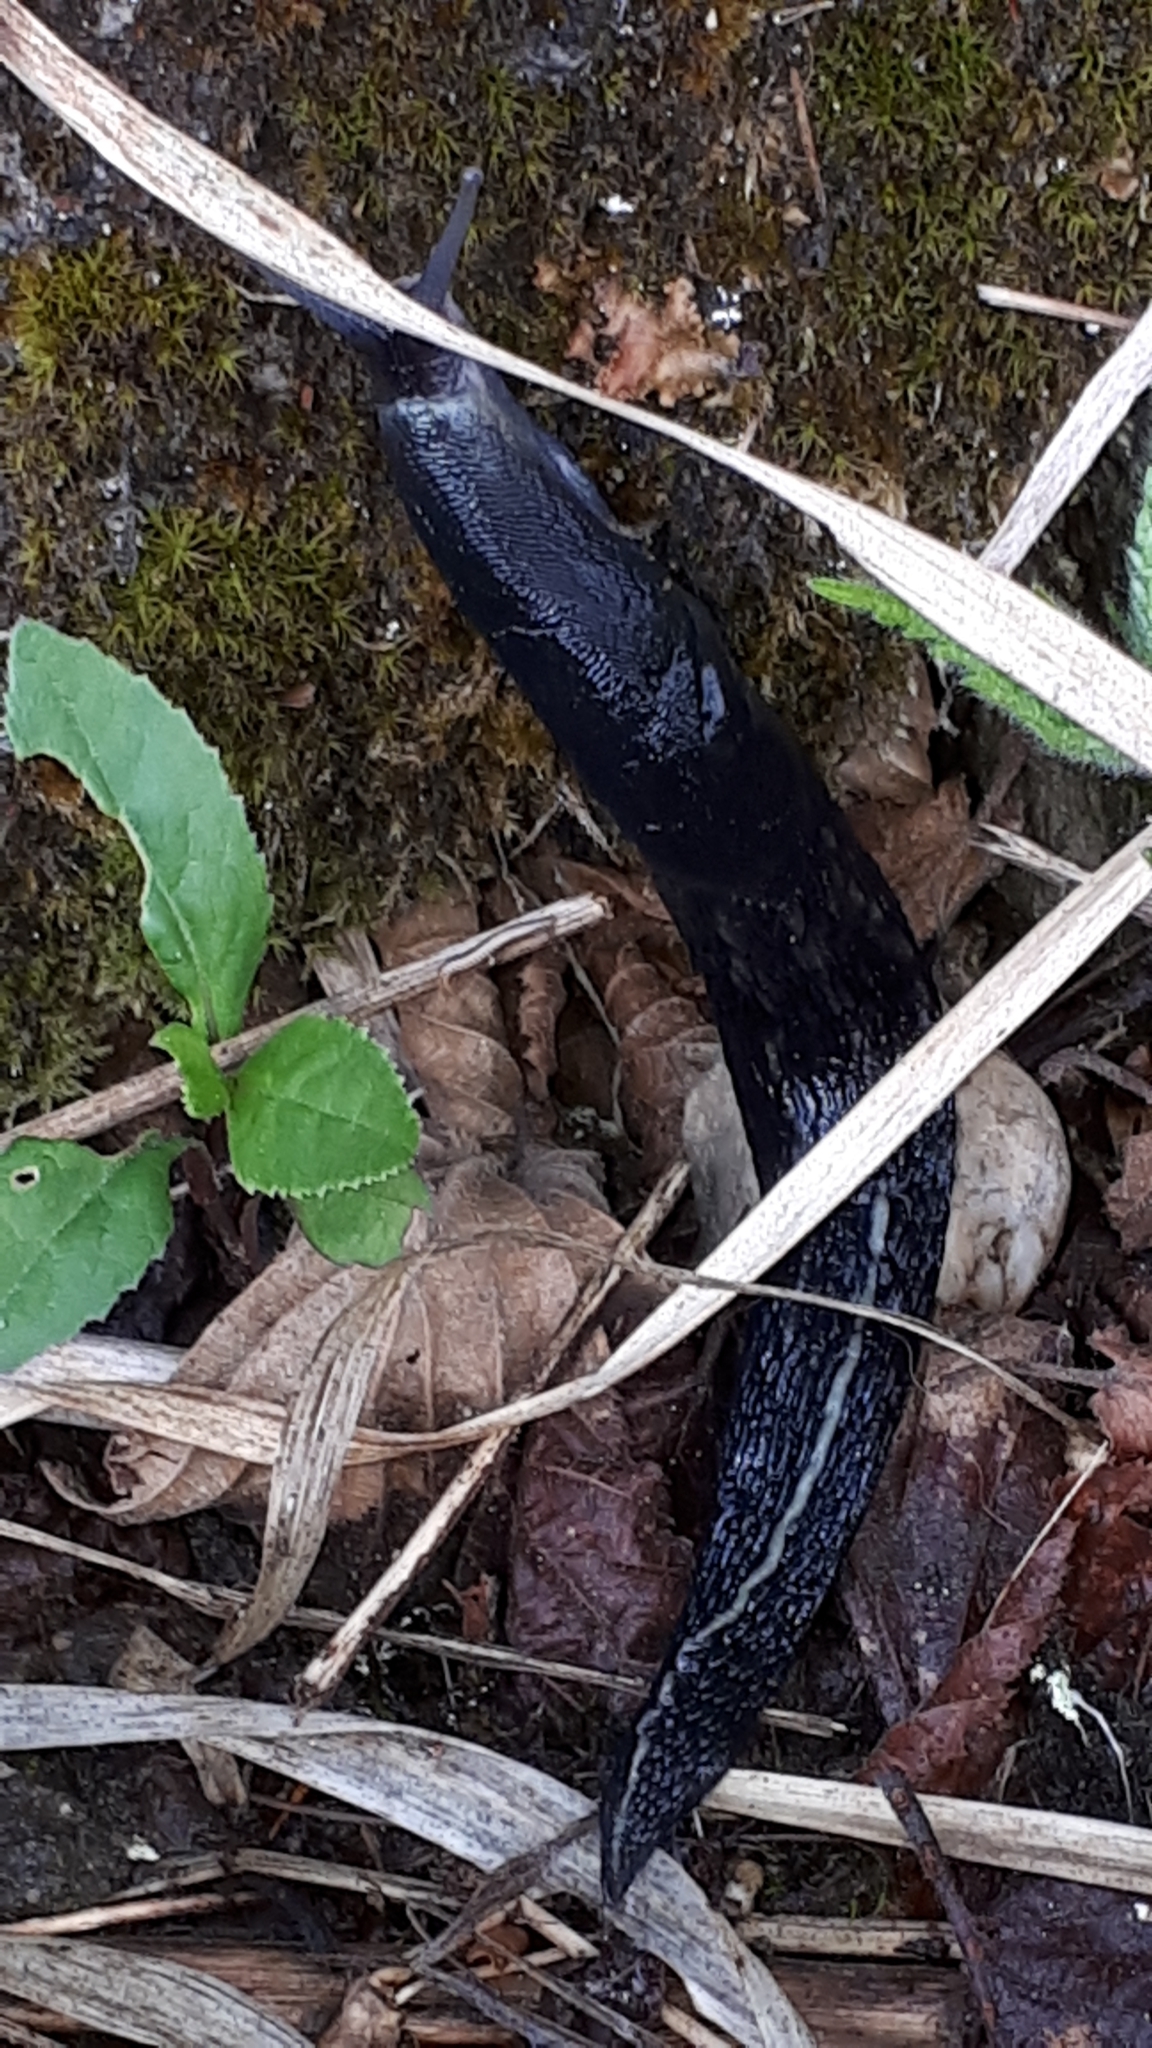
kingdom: Animalia
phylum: Mollusca
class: Gastropoda
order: Stylommatophora
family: Limacidae
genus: Limax
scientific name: Limax cinereoniger
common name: Ash-black slug
